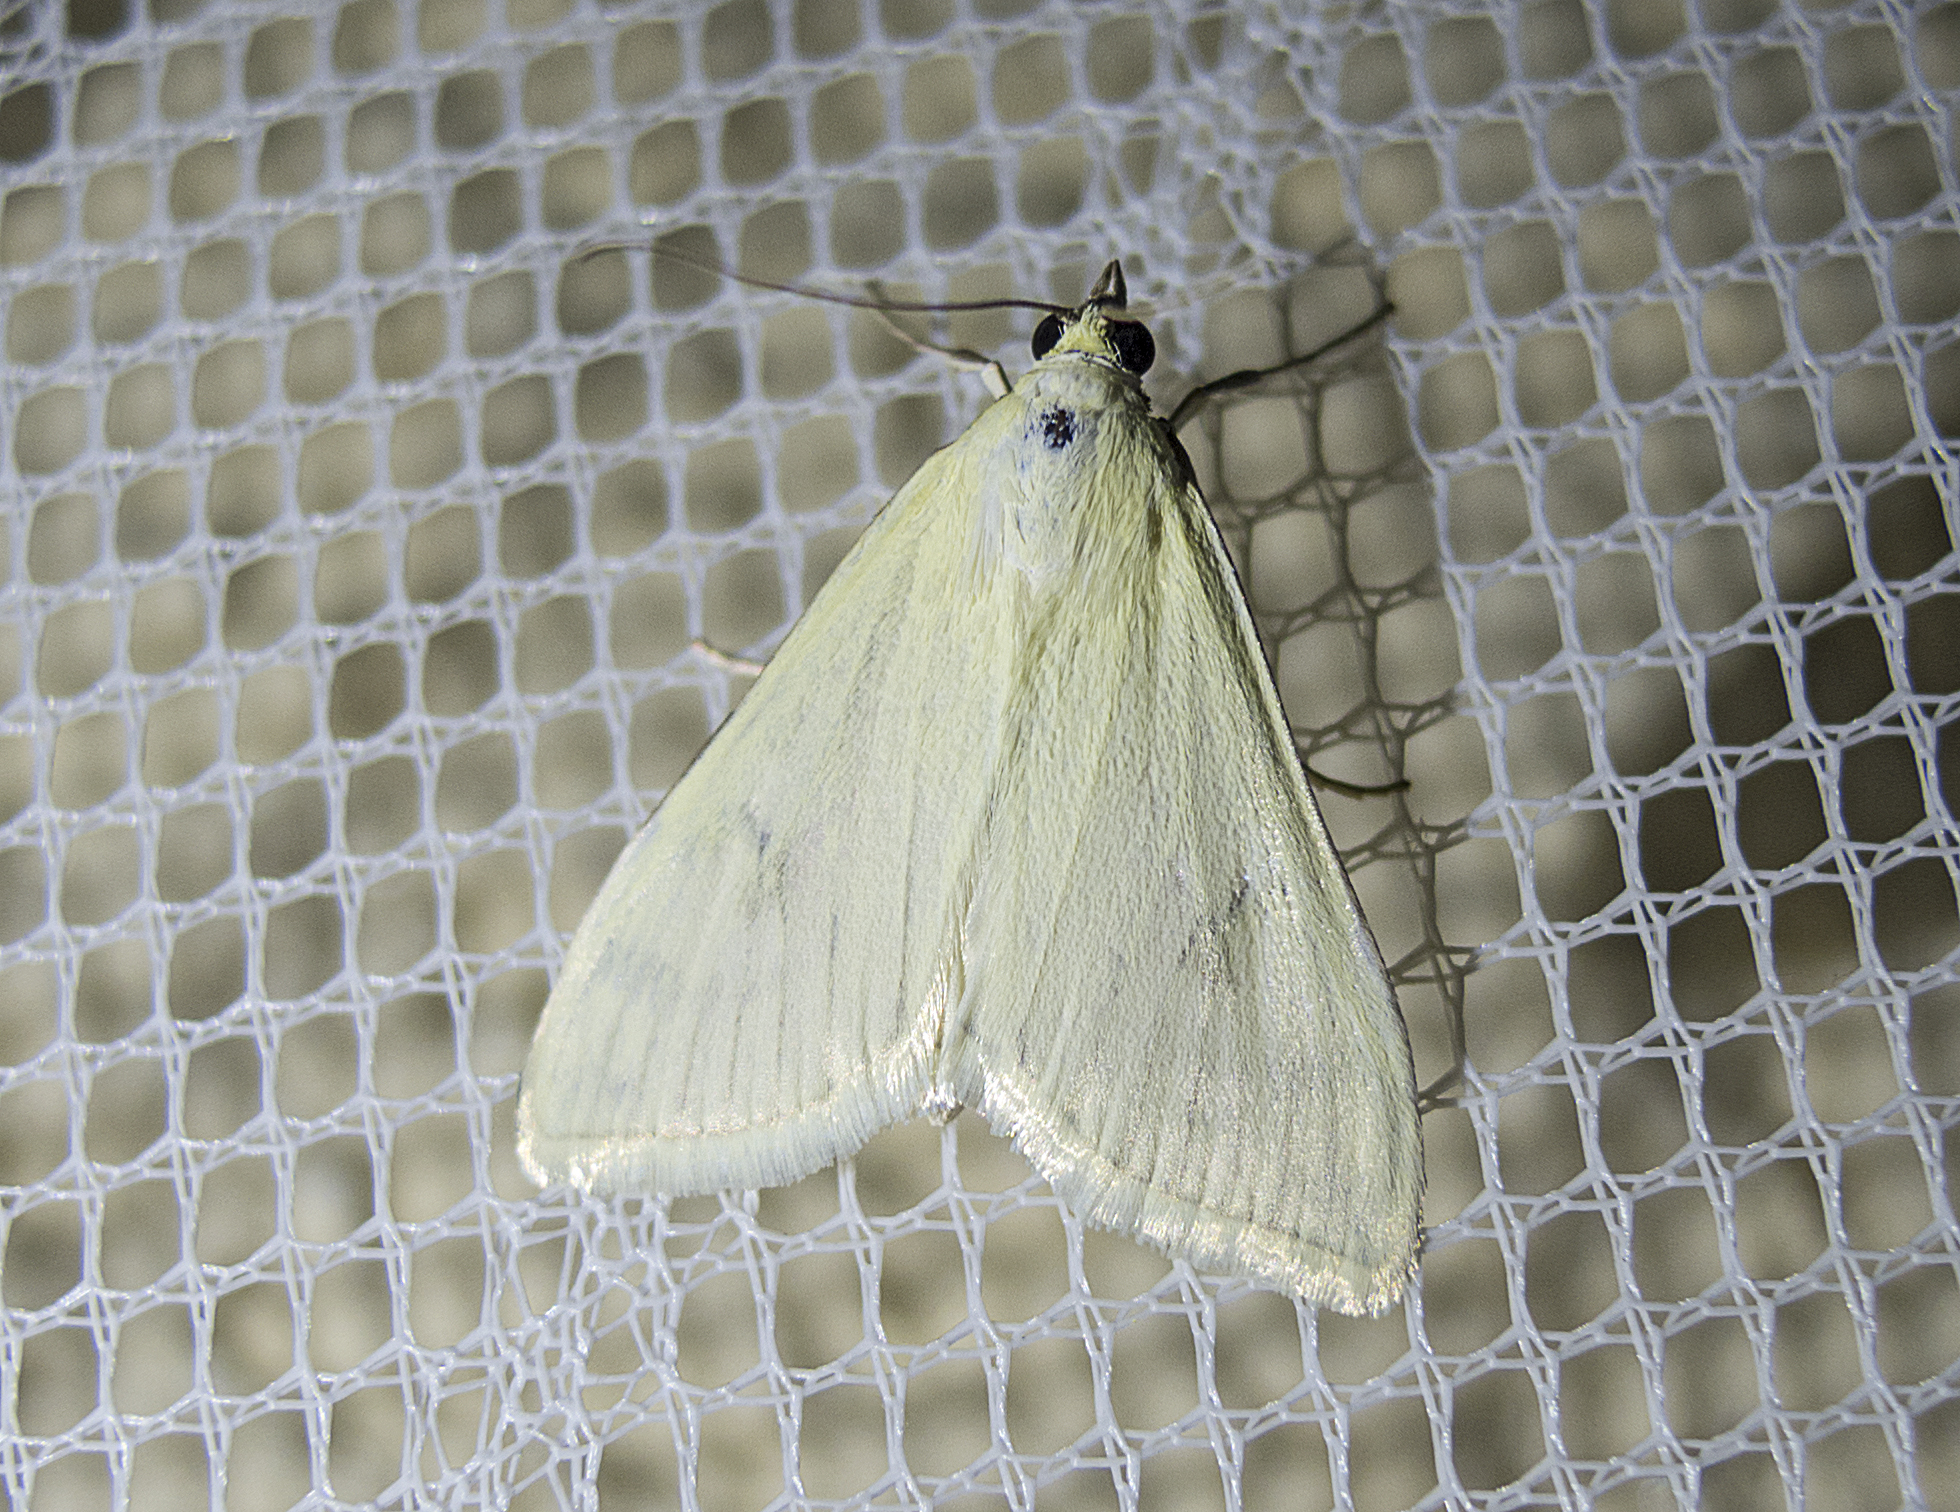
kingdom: Animalia
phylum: Arthropoda
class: Insecta
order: Lepidoptera
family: Crambidae
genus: Sitochroa
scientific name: Sitochroa palealis
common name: Greenish-yellow sitochroa moth
